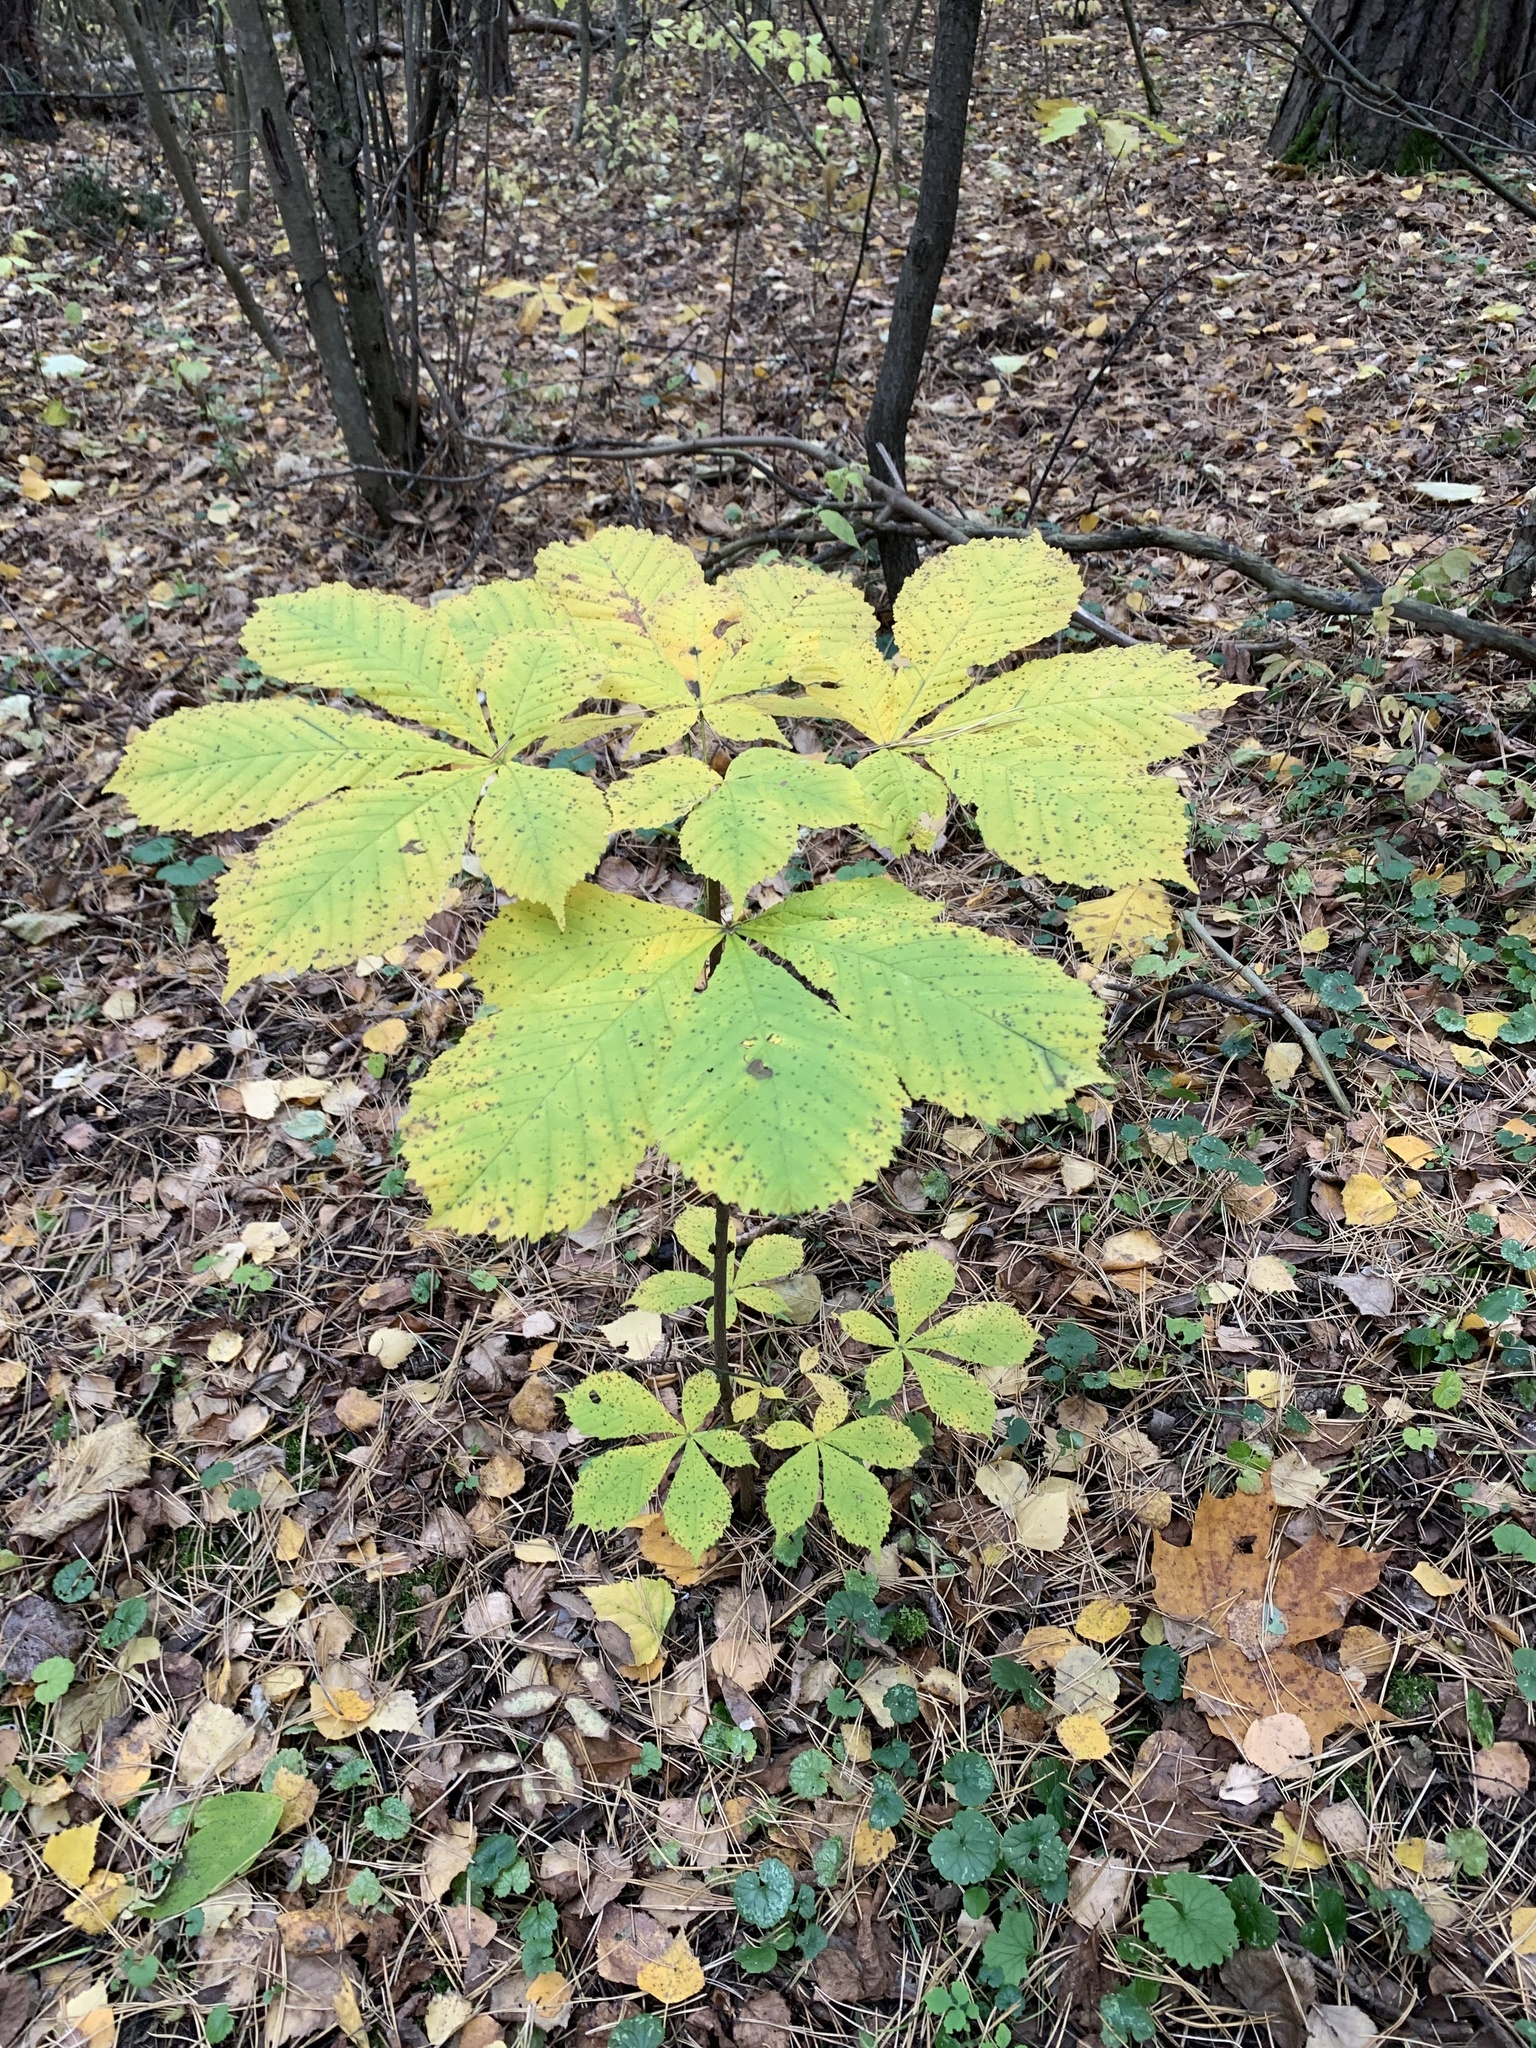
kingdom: Plantae
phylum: Tracheophyta
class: Magnoliopsida
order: Sapindales
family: Sapindaceae
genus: Aesculus
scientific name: Aesculus hippocastanum
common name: Horse-chestnut
